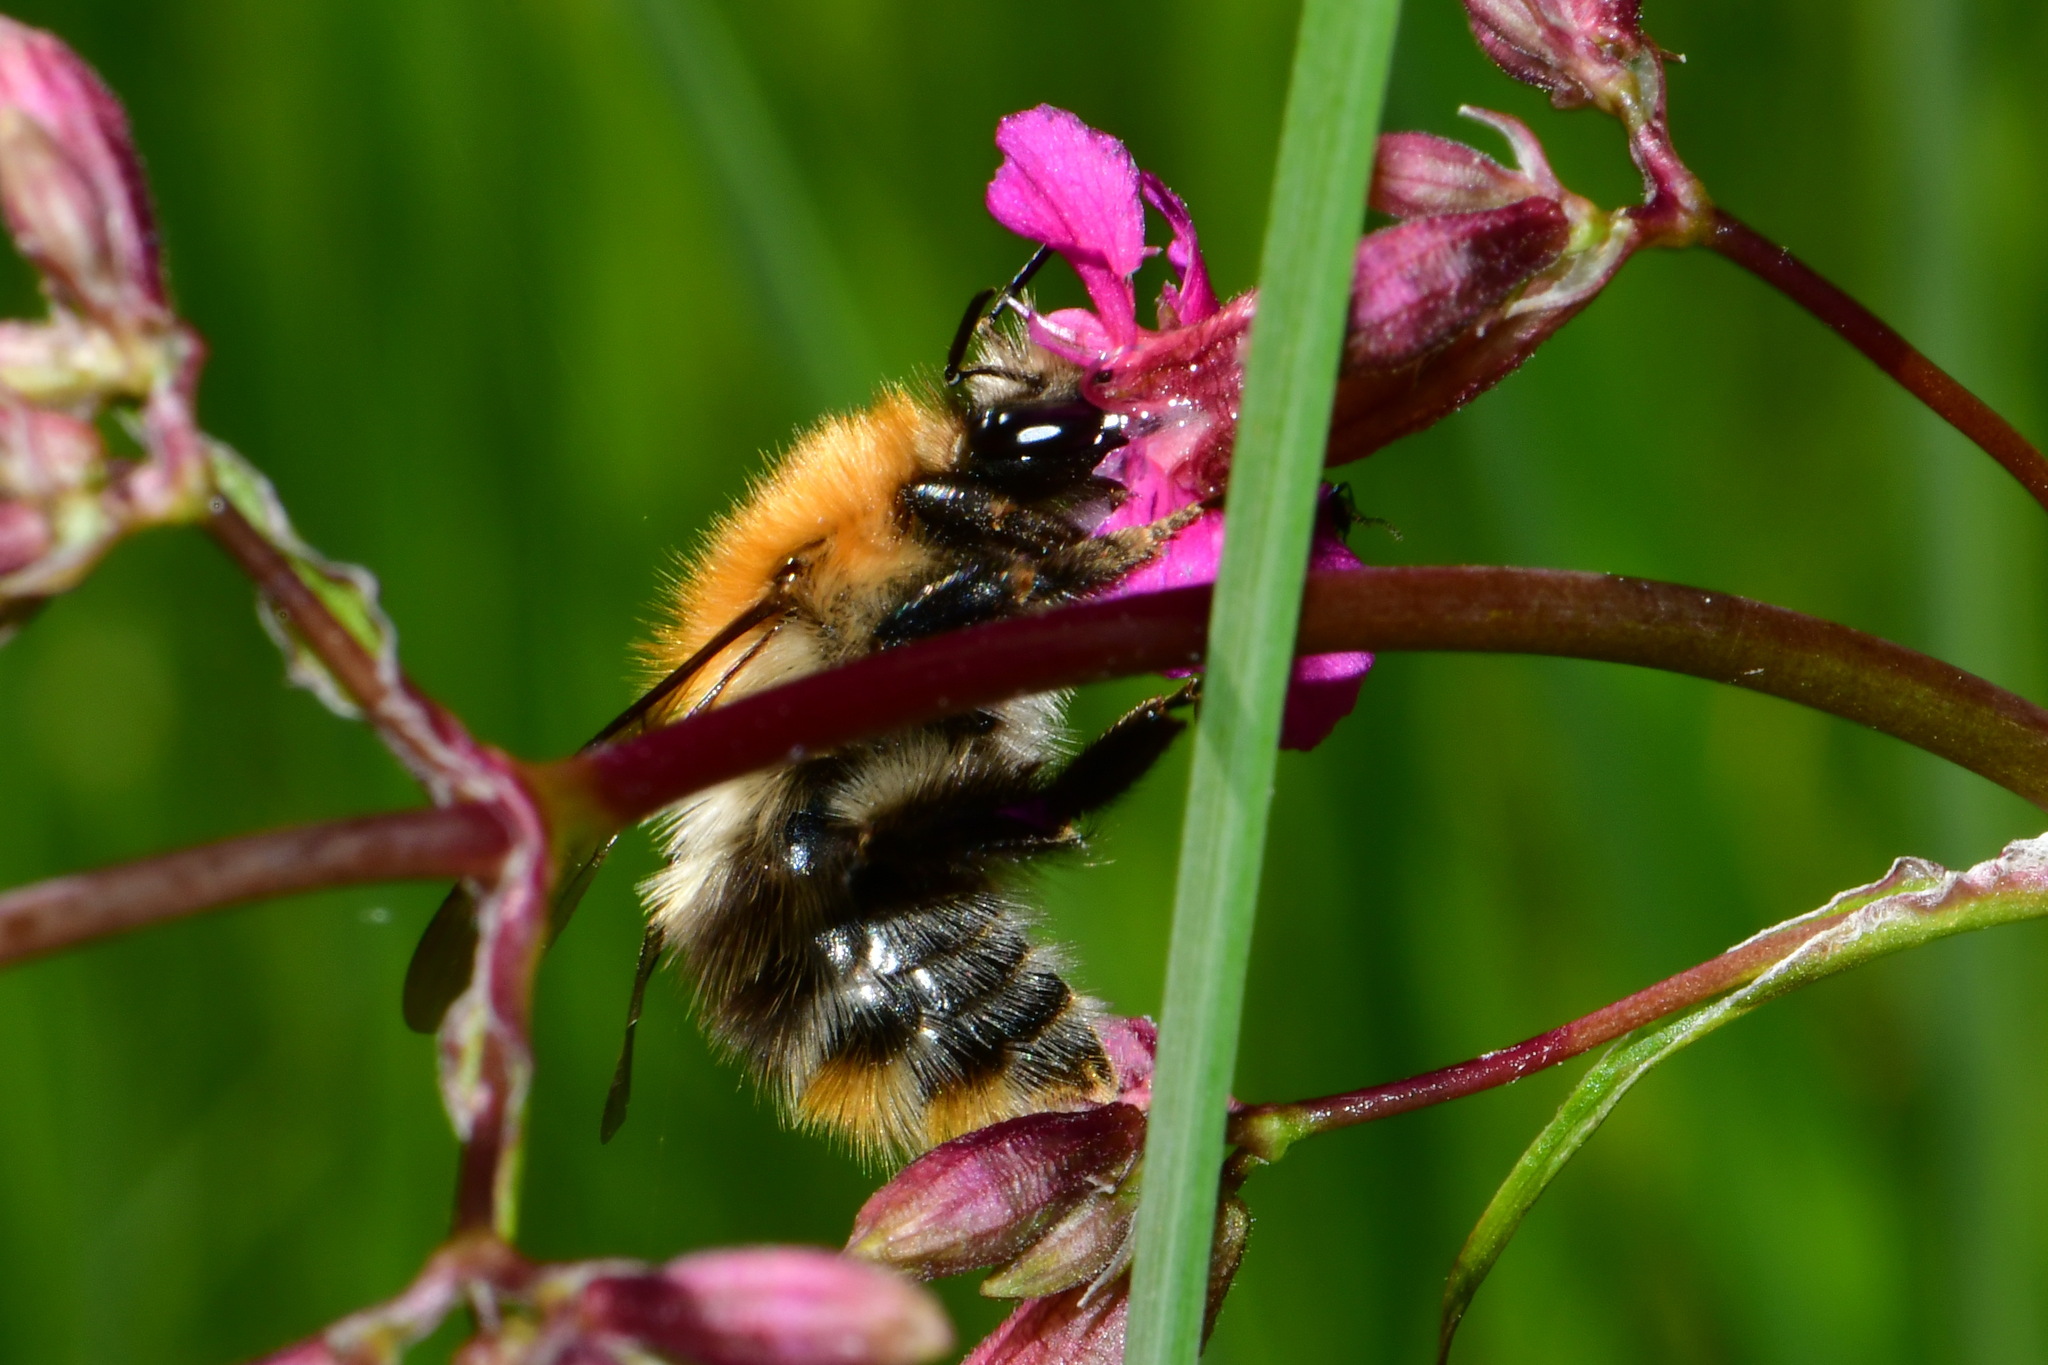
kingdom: Animalia
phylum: Arthropoda
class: Insecta
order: Hymenoptera
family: Apidae
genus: Bombus
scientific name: Bombus pascuorum
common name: Common carder bee
